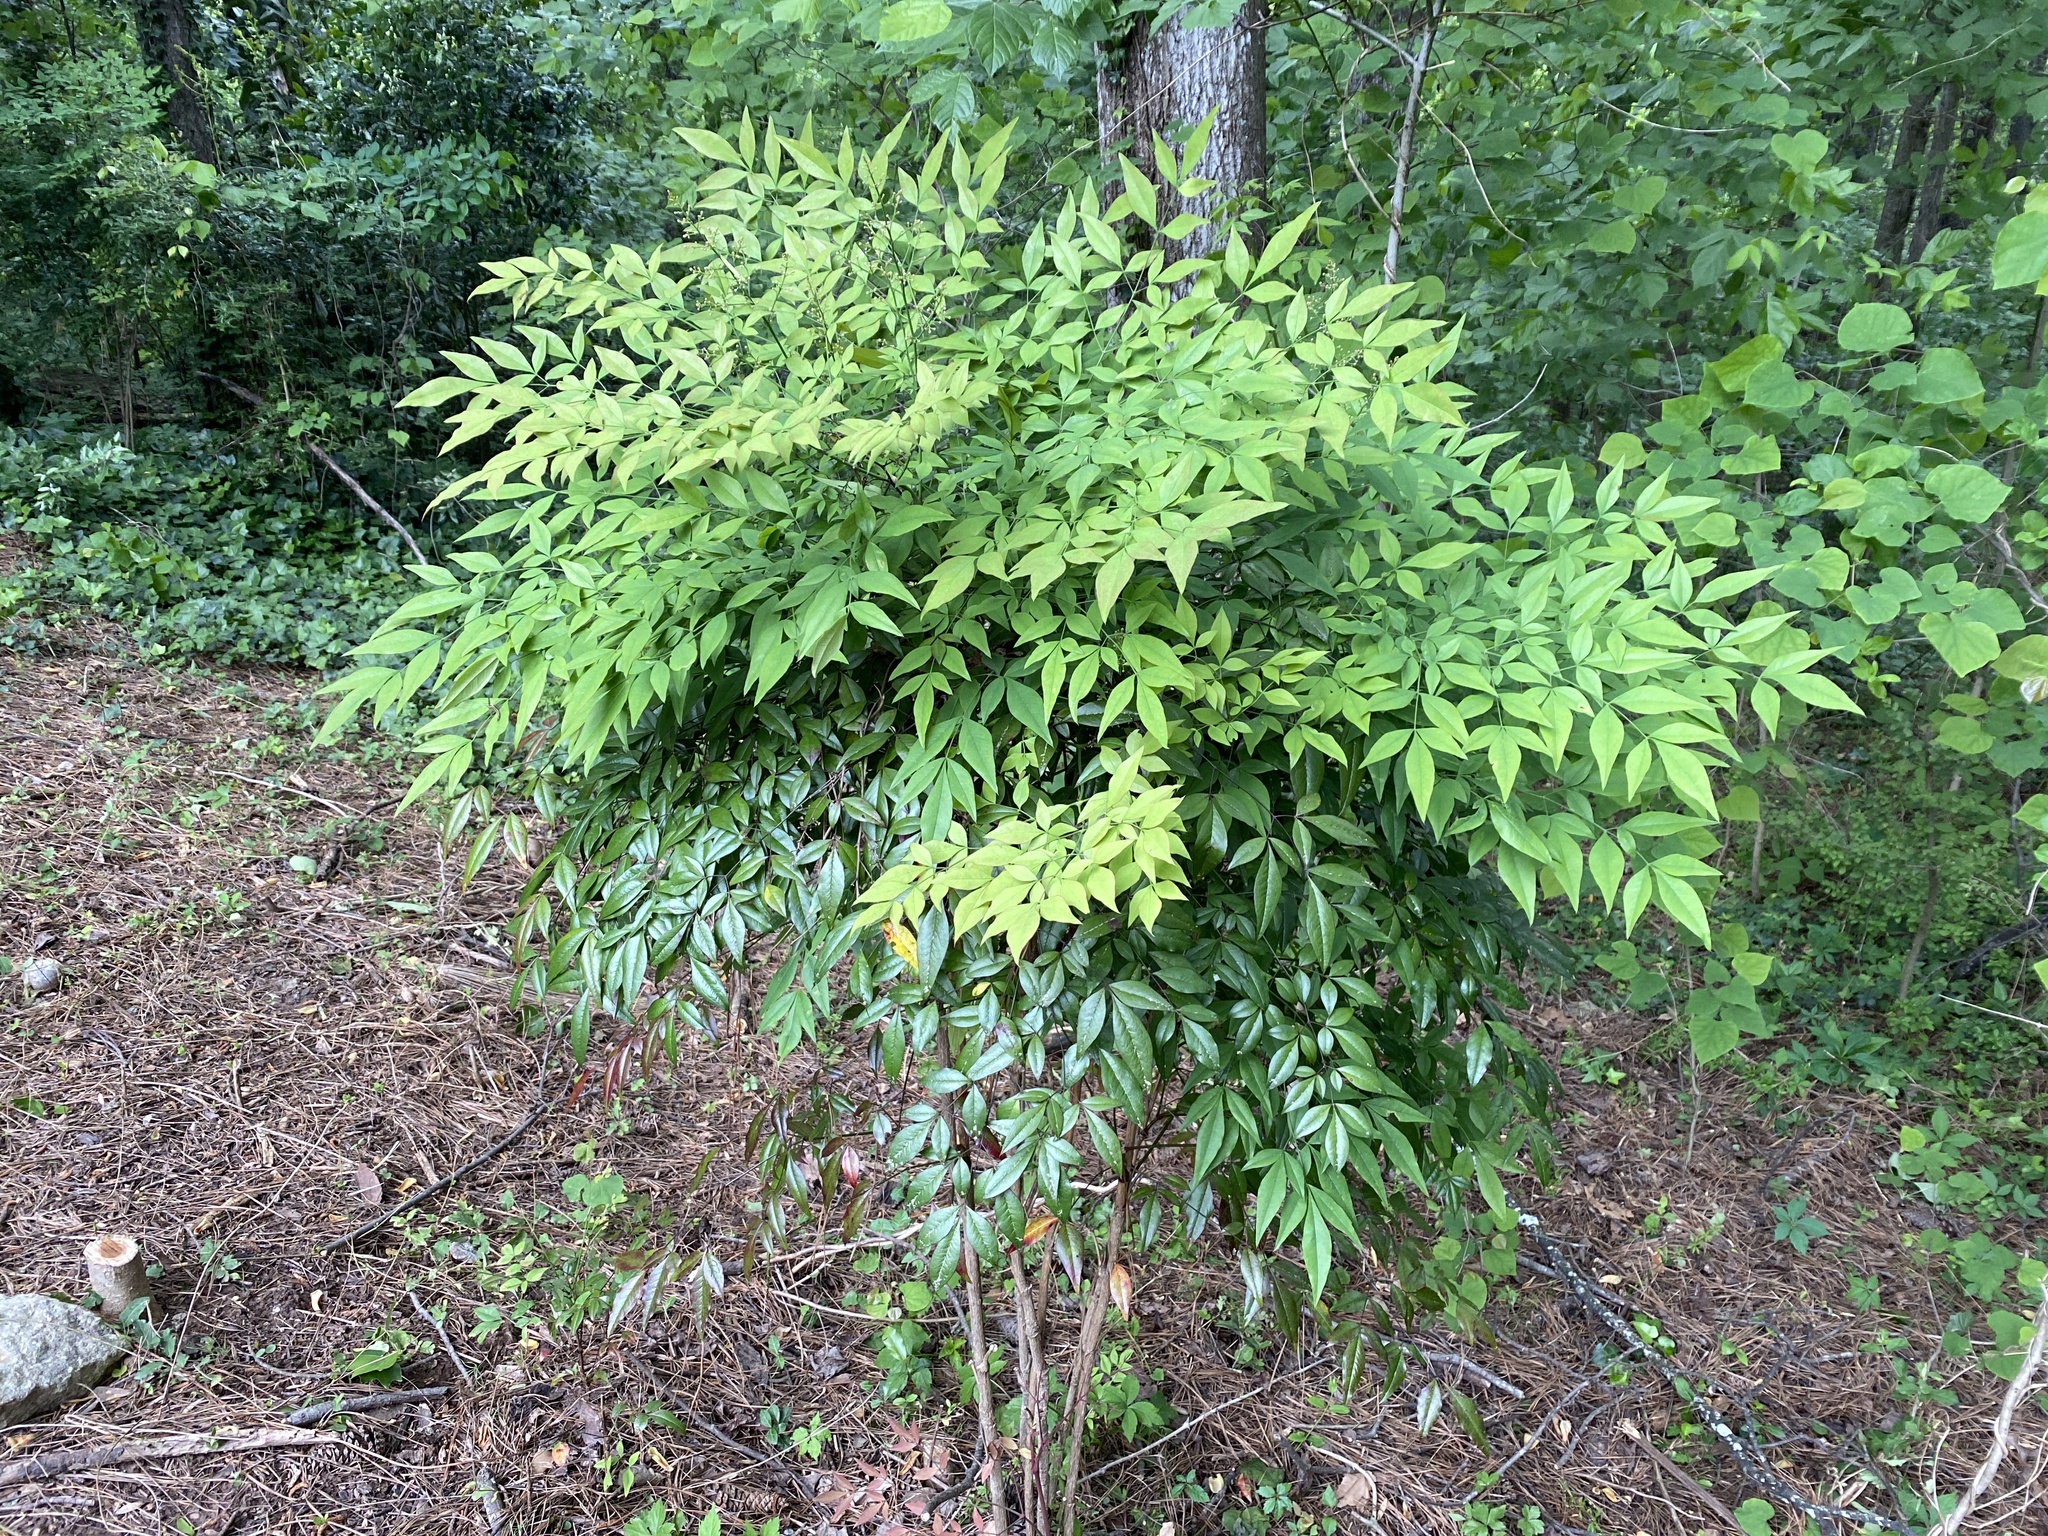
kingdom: Plantae
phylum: Tracheophyta
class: Magnoliopsida
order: Ranunculales
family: Berberidaceae
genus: Nandina
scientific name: Nandina domestica
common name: Sacred bamboo
